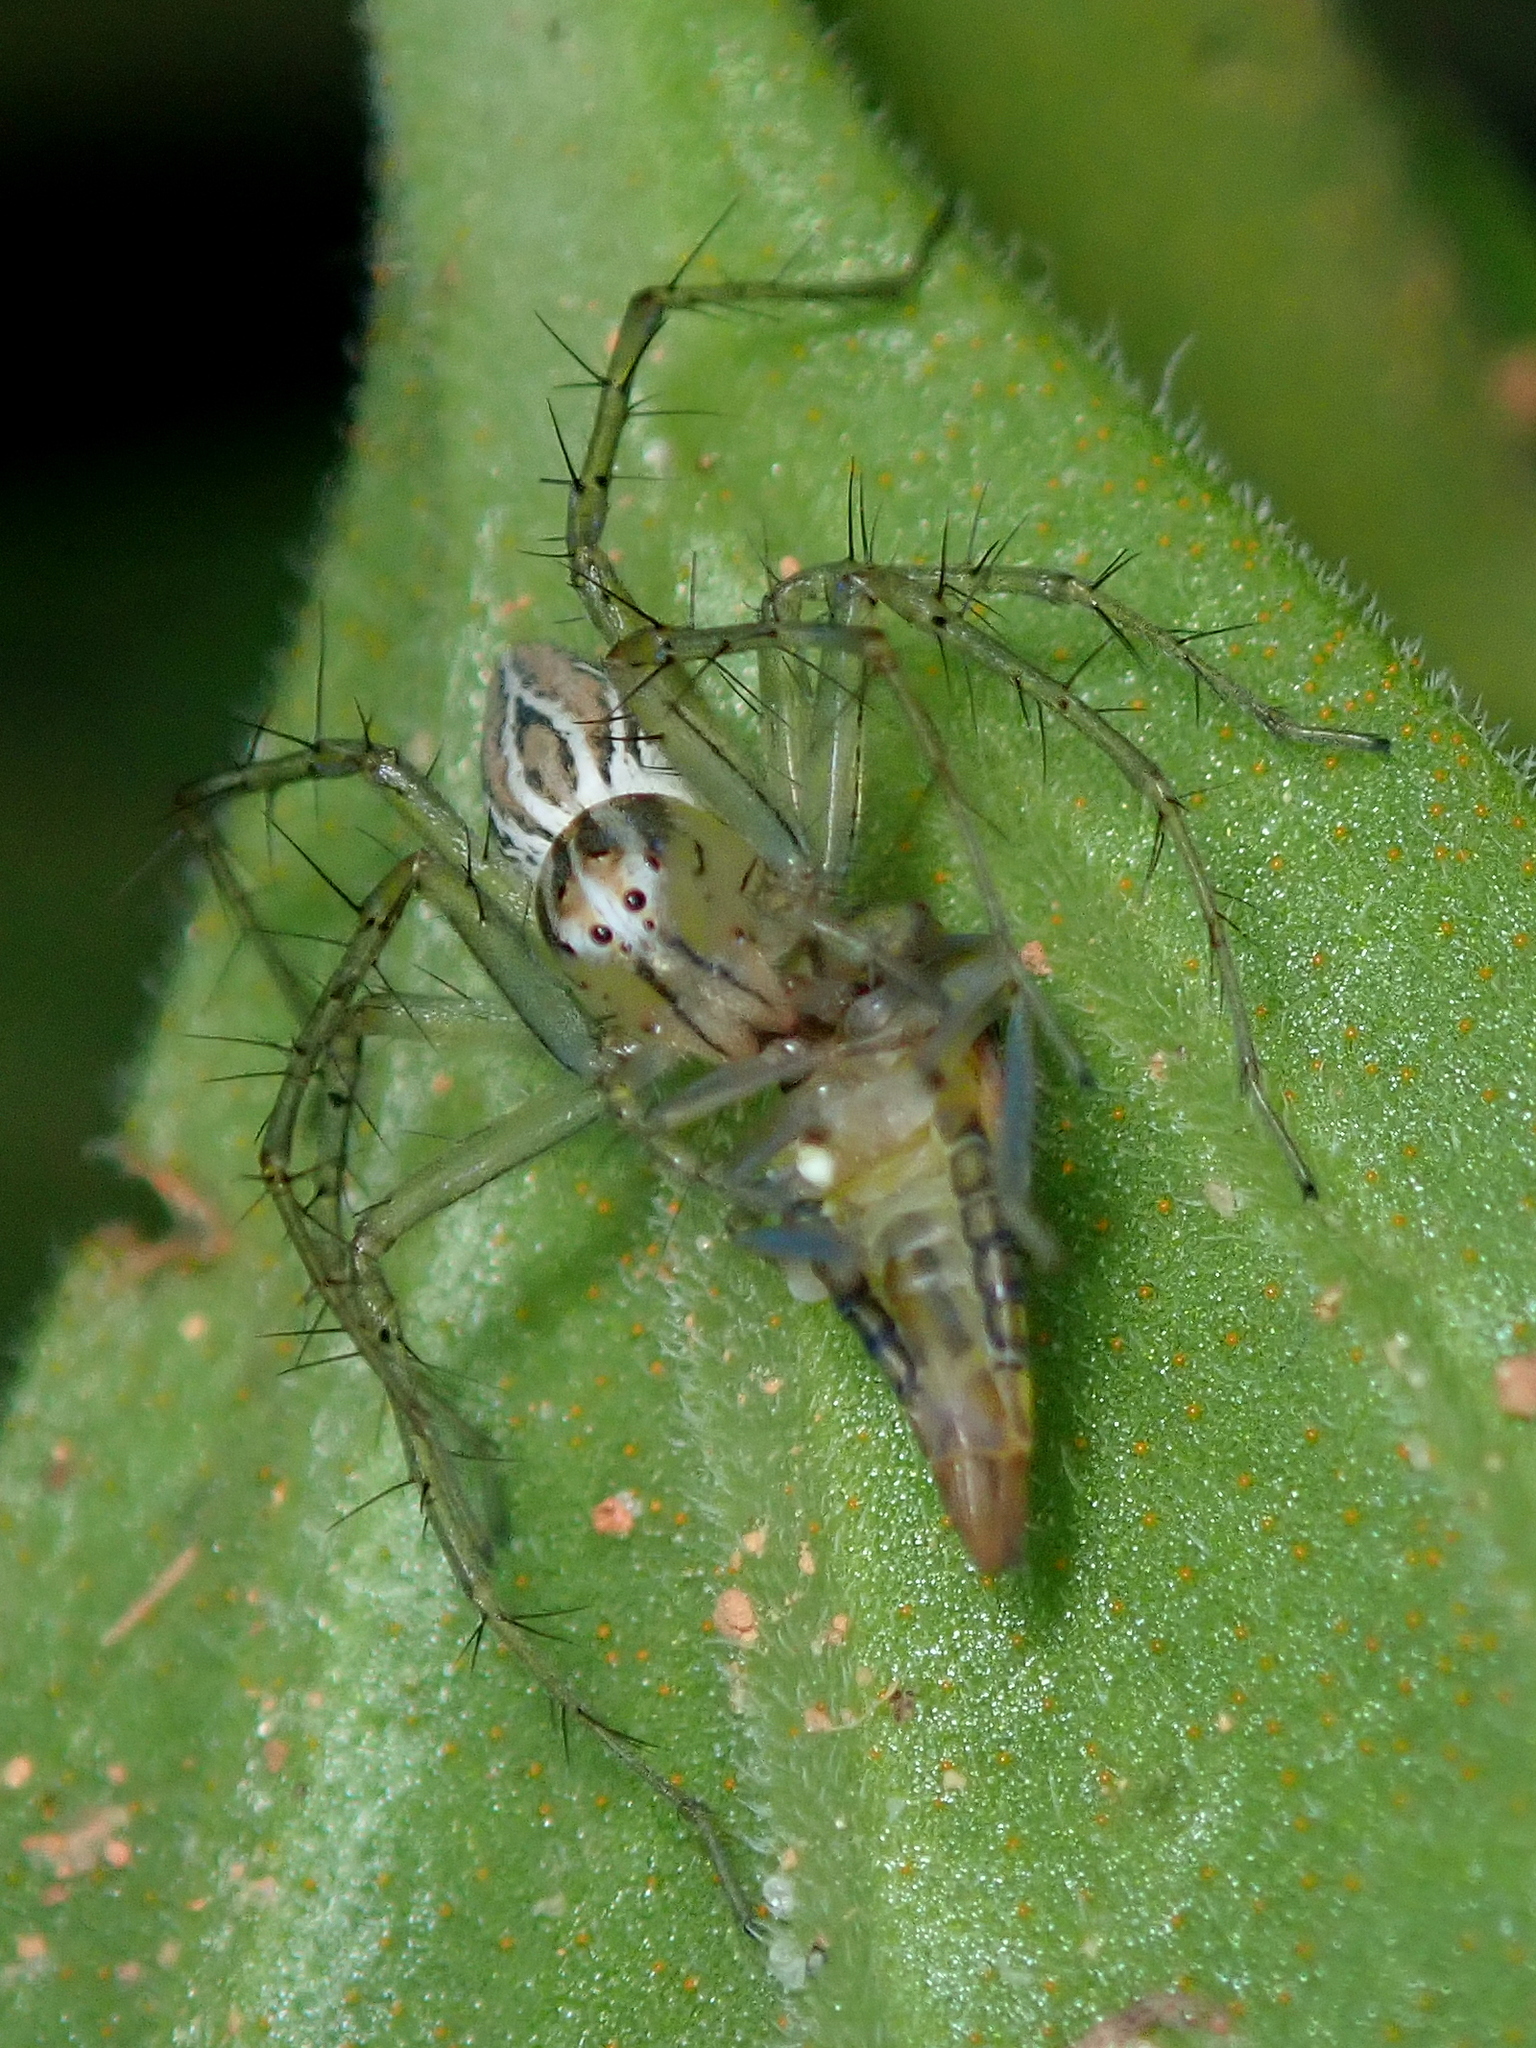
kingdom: Animalia
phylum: Arthropoda
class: Arachnida
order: Araneae
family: Oxyopidae
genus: Oxyopes
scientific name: Oxyopes salticus
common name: Lynx spiders
